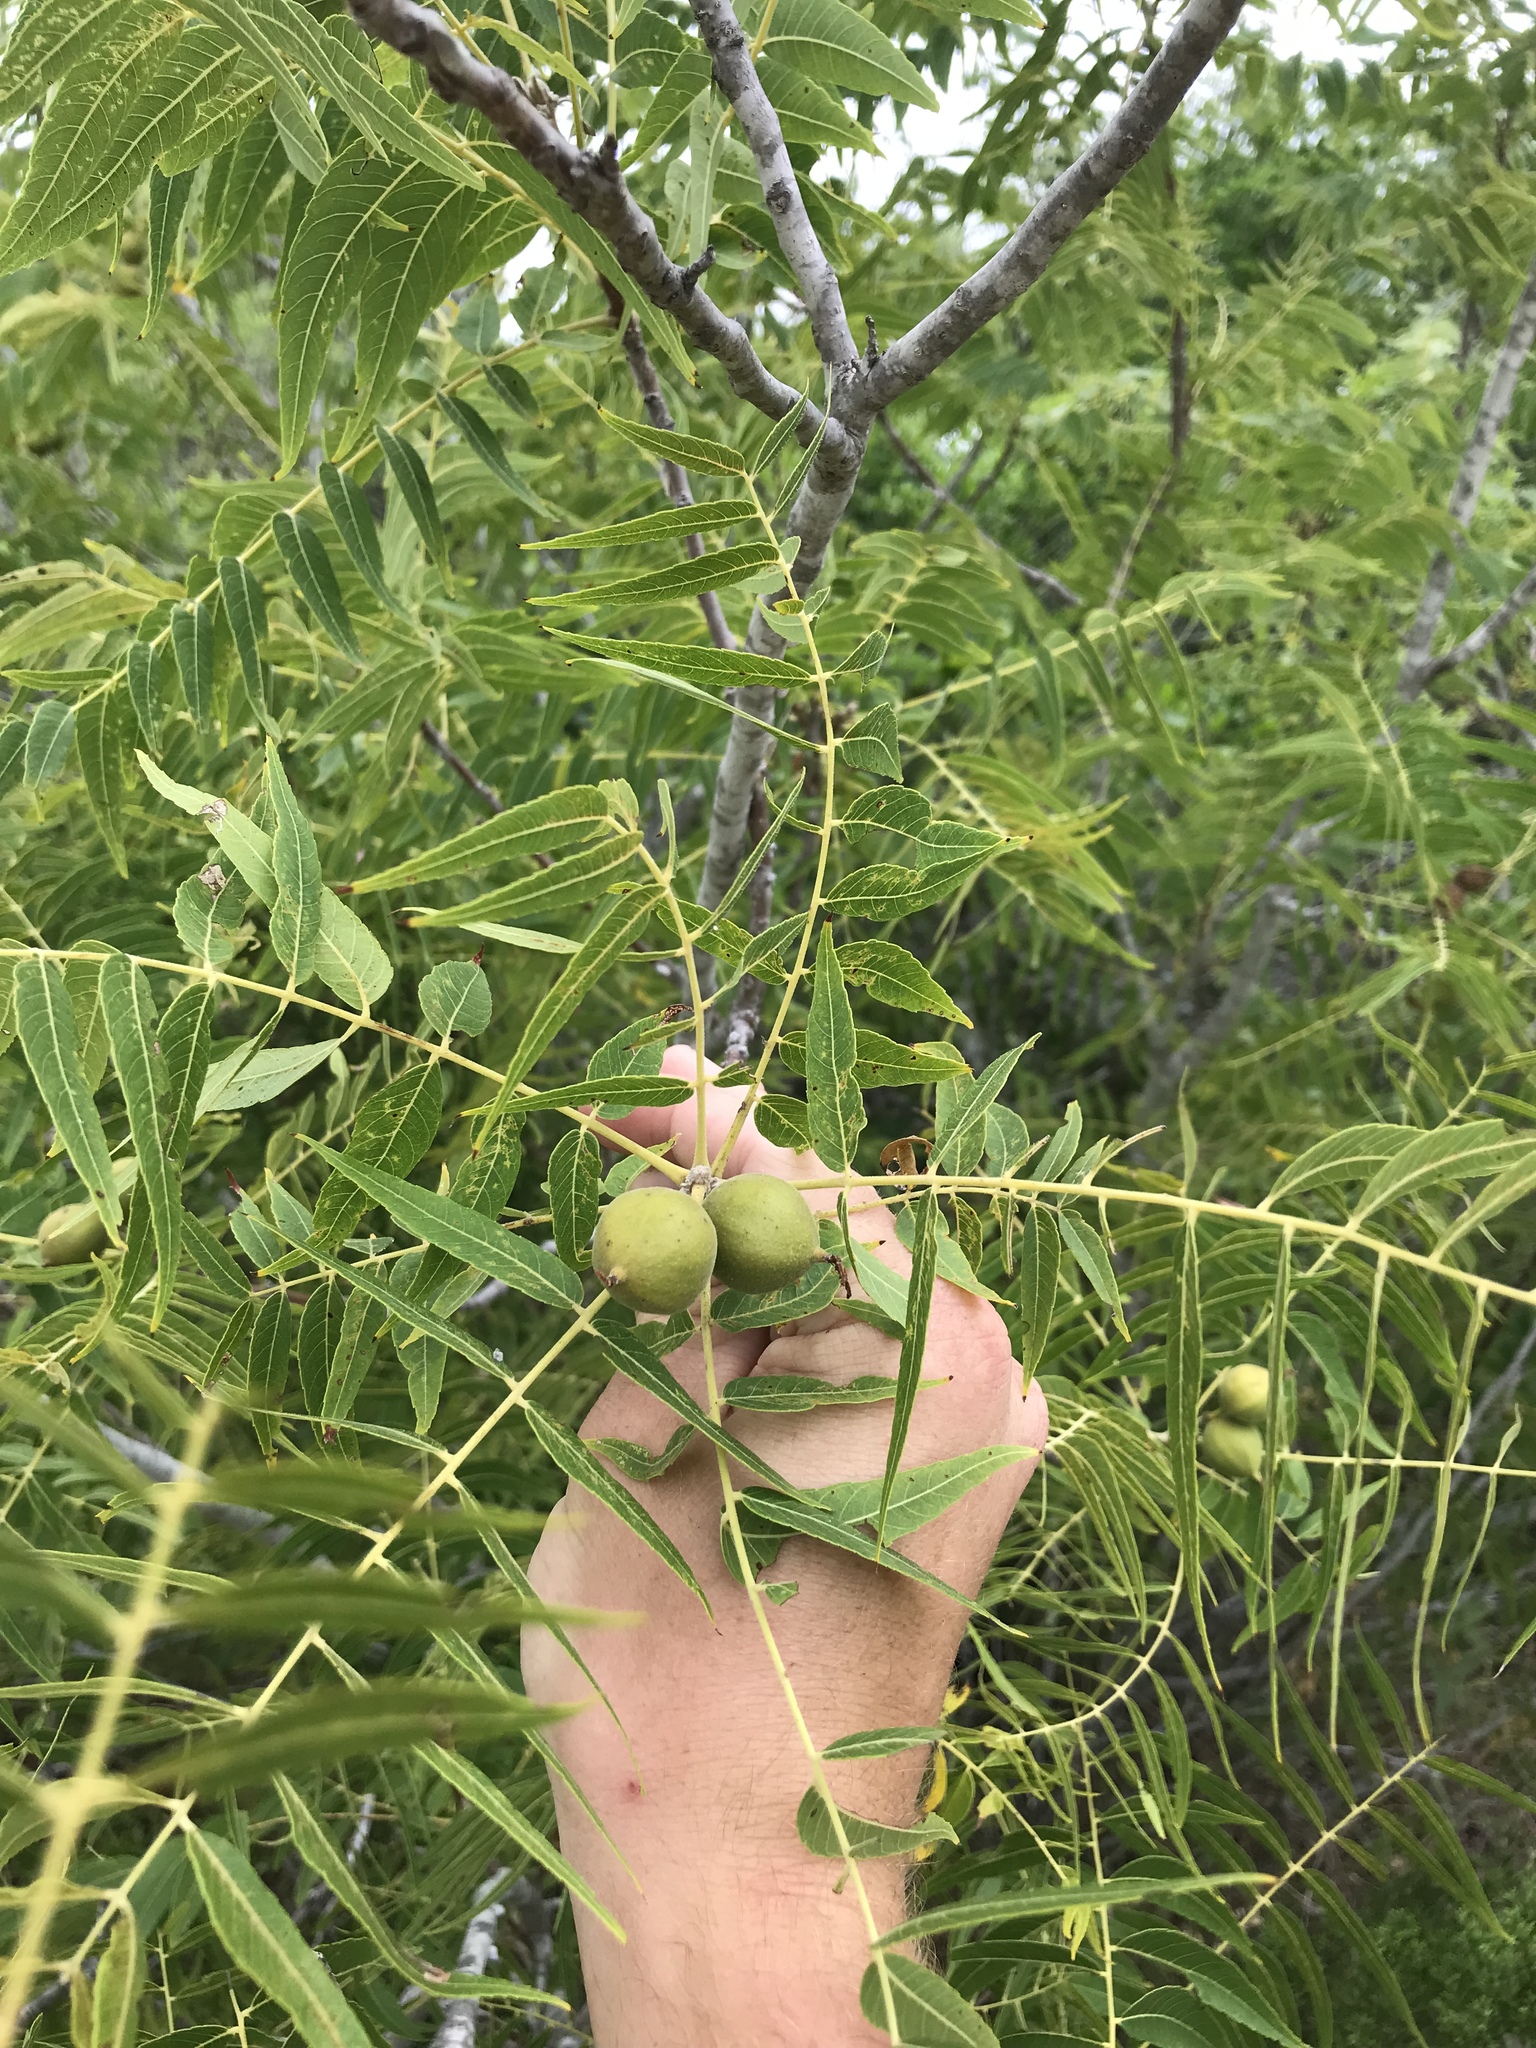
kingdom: Plantae
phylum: Tracheophyta
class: Magnoliopsida
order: Fagales
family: Juglandaceae
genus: Juglans
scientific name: Juglans microcarpa
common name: Texas walnut
